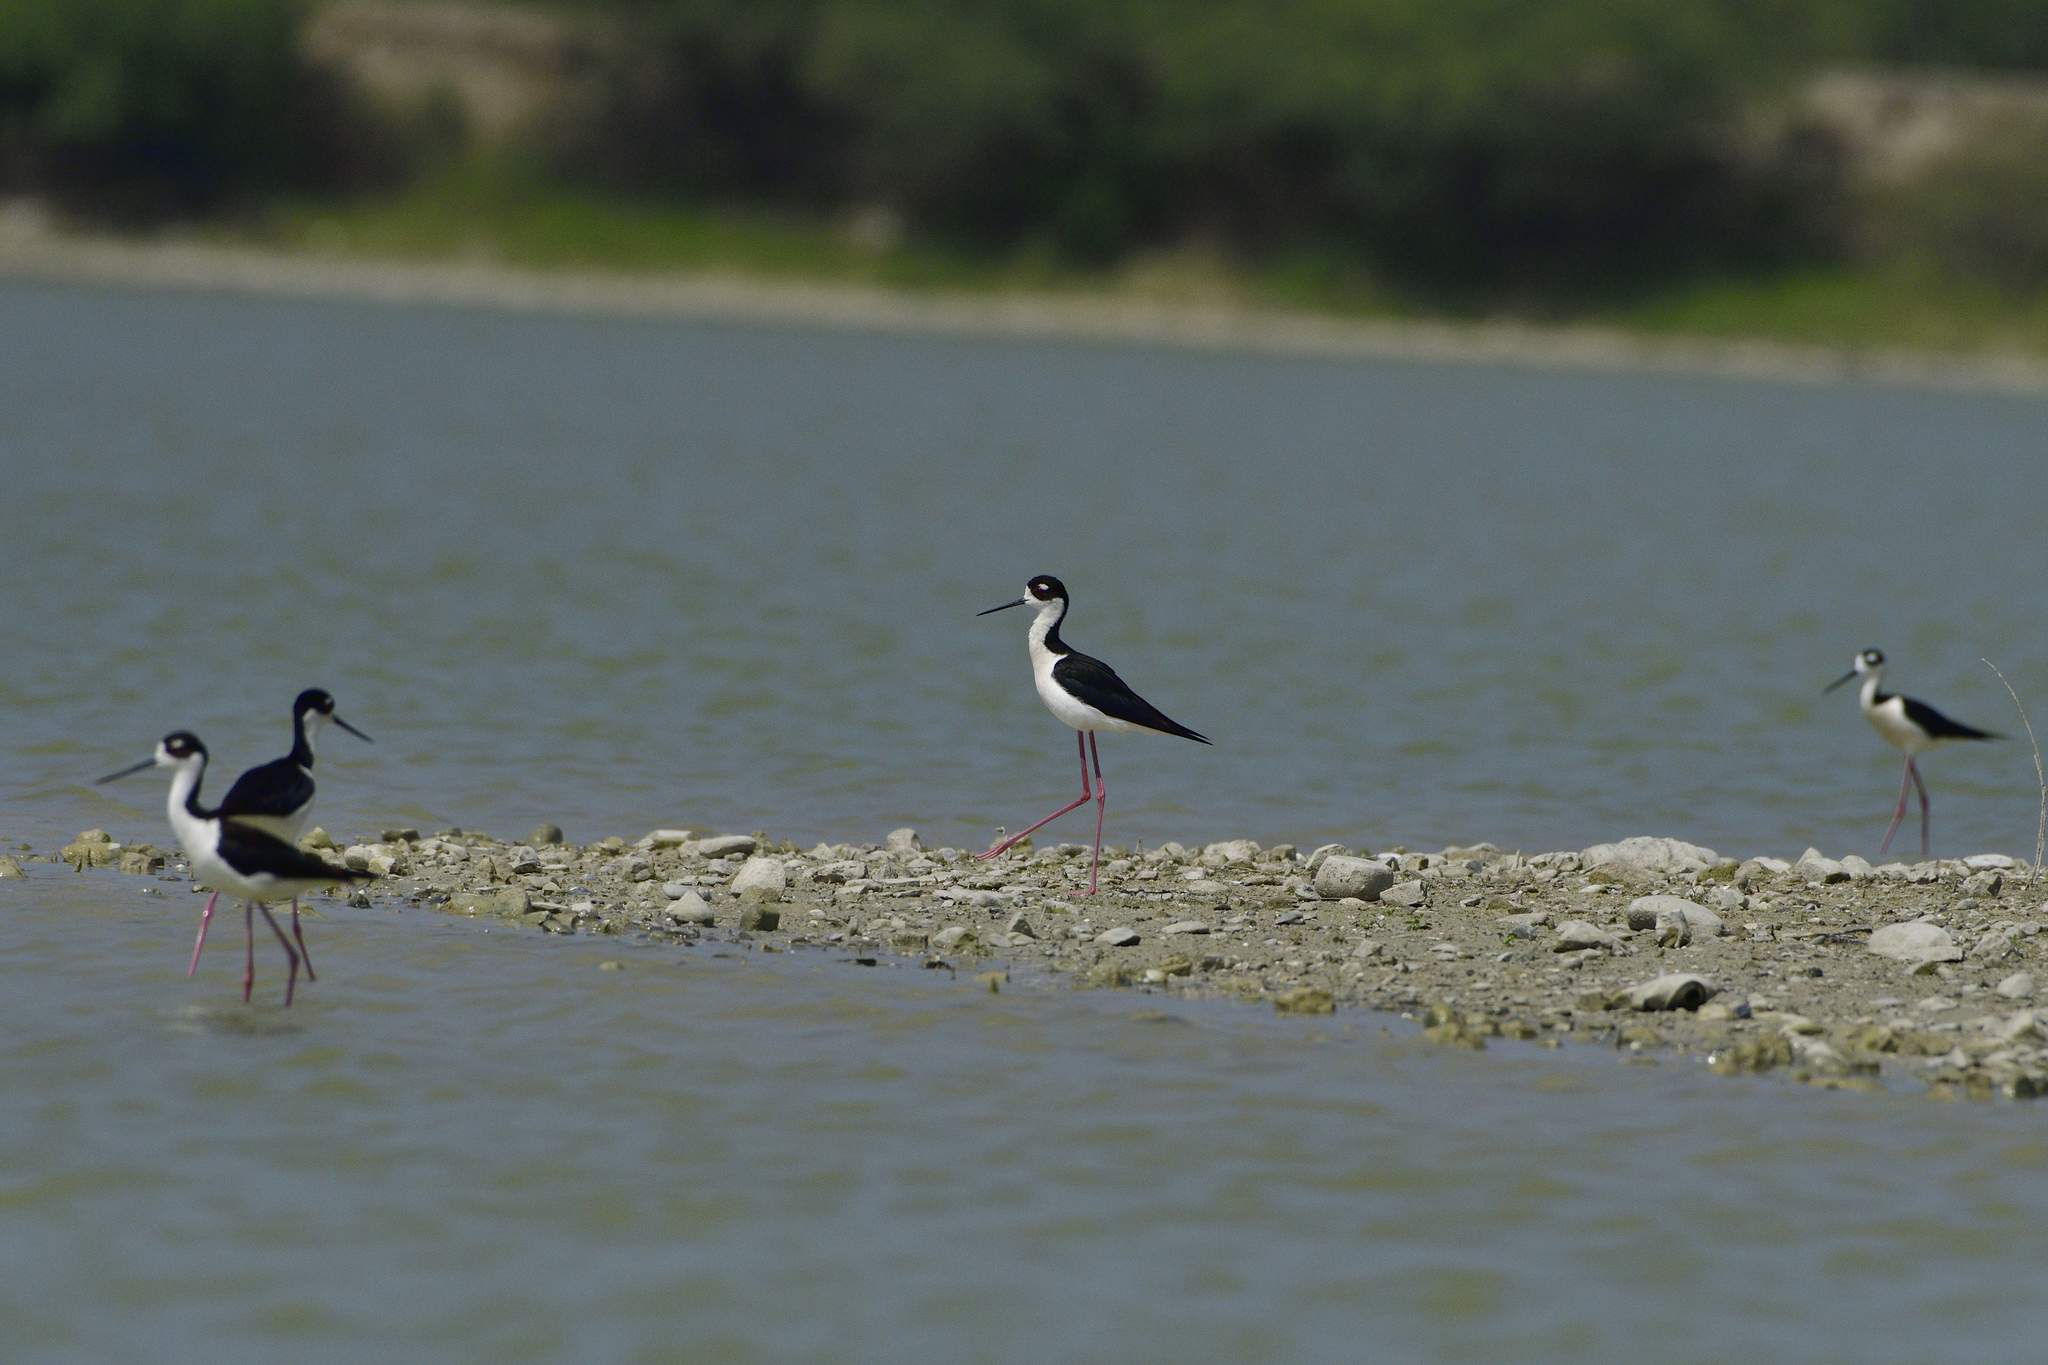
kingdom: Animalia
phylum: Chordata
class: Aves
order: Charadriiformes
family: Recurvirostridae
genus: Himantopus
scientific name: Himantopus mexicanus
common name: Black-necked stilt
